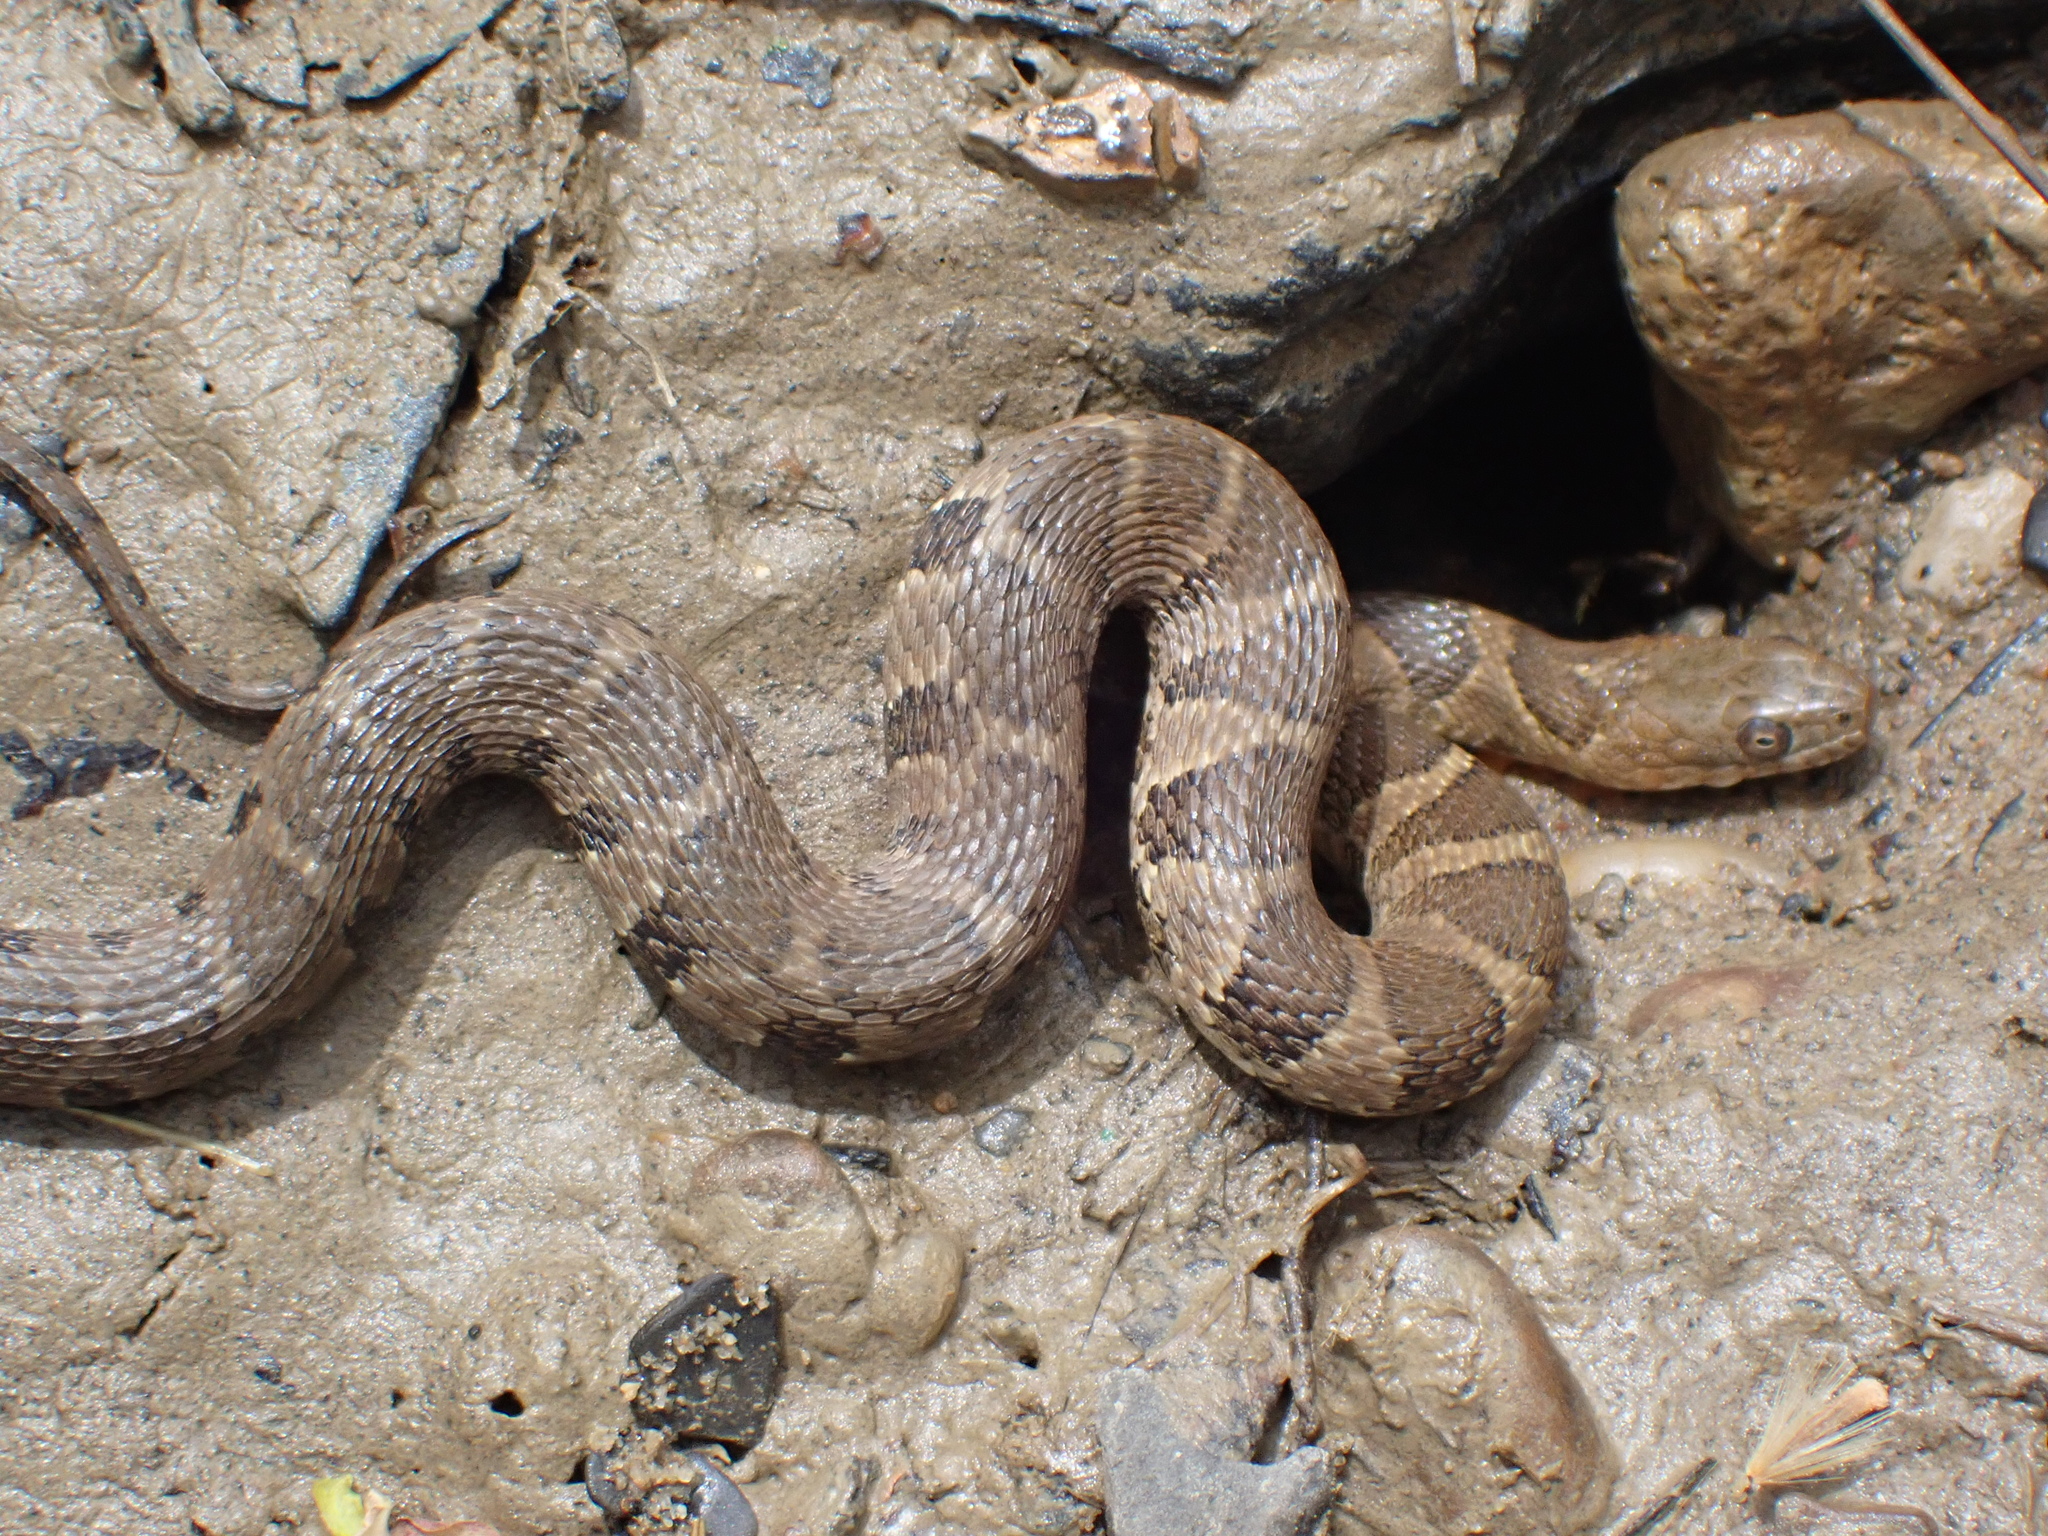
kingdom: Animalia
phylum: Chordata
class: Squamata
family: Colubridae
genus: Nerodia
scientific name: Nerodia sipedon
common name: Northern water snake
